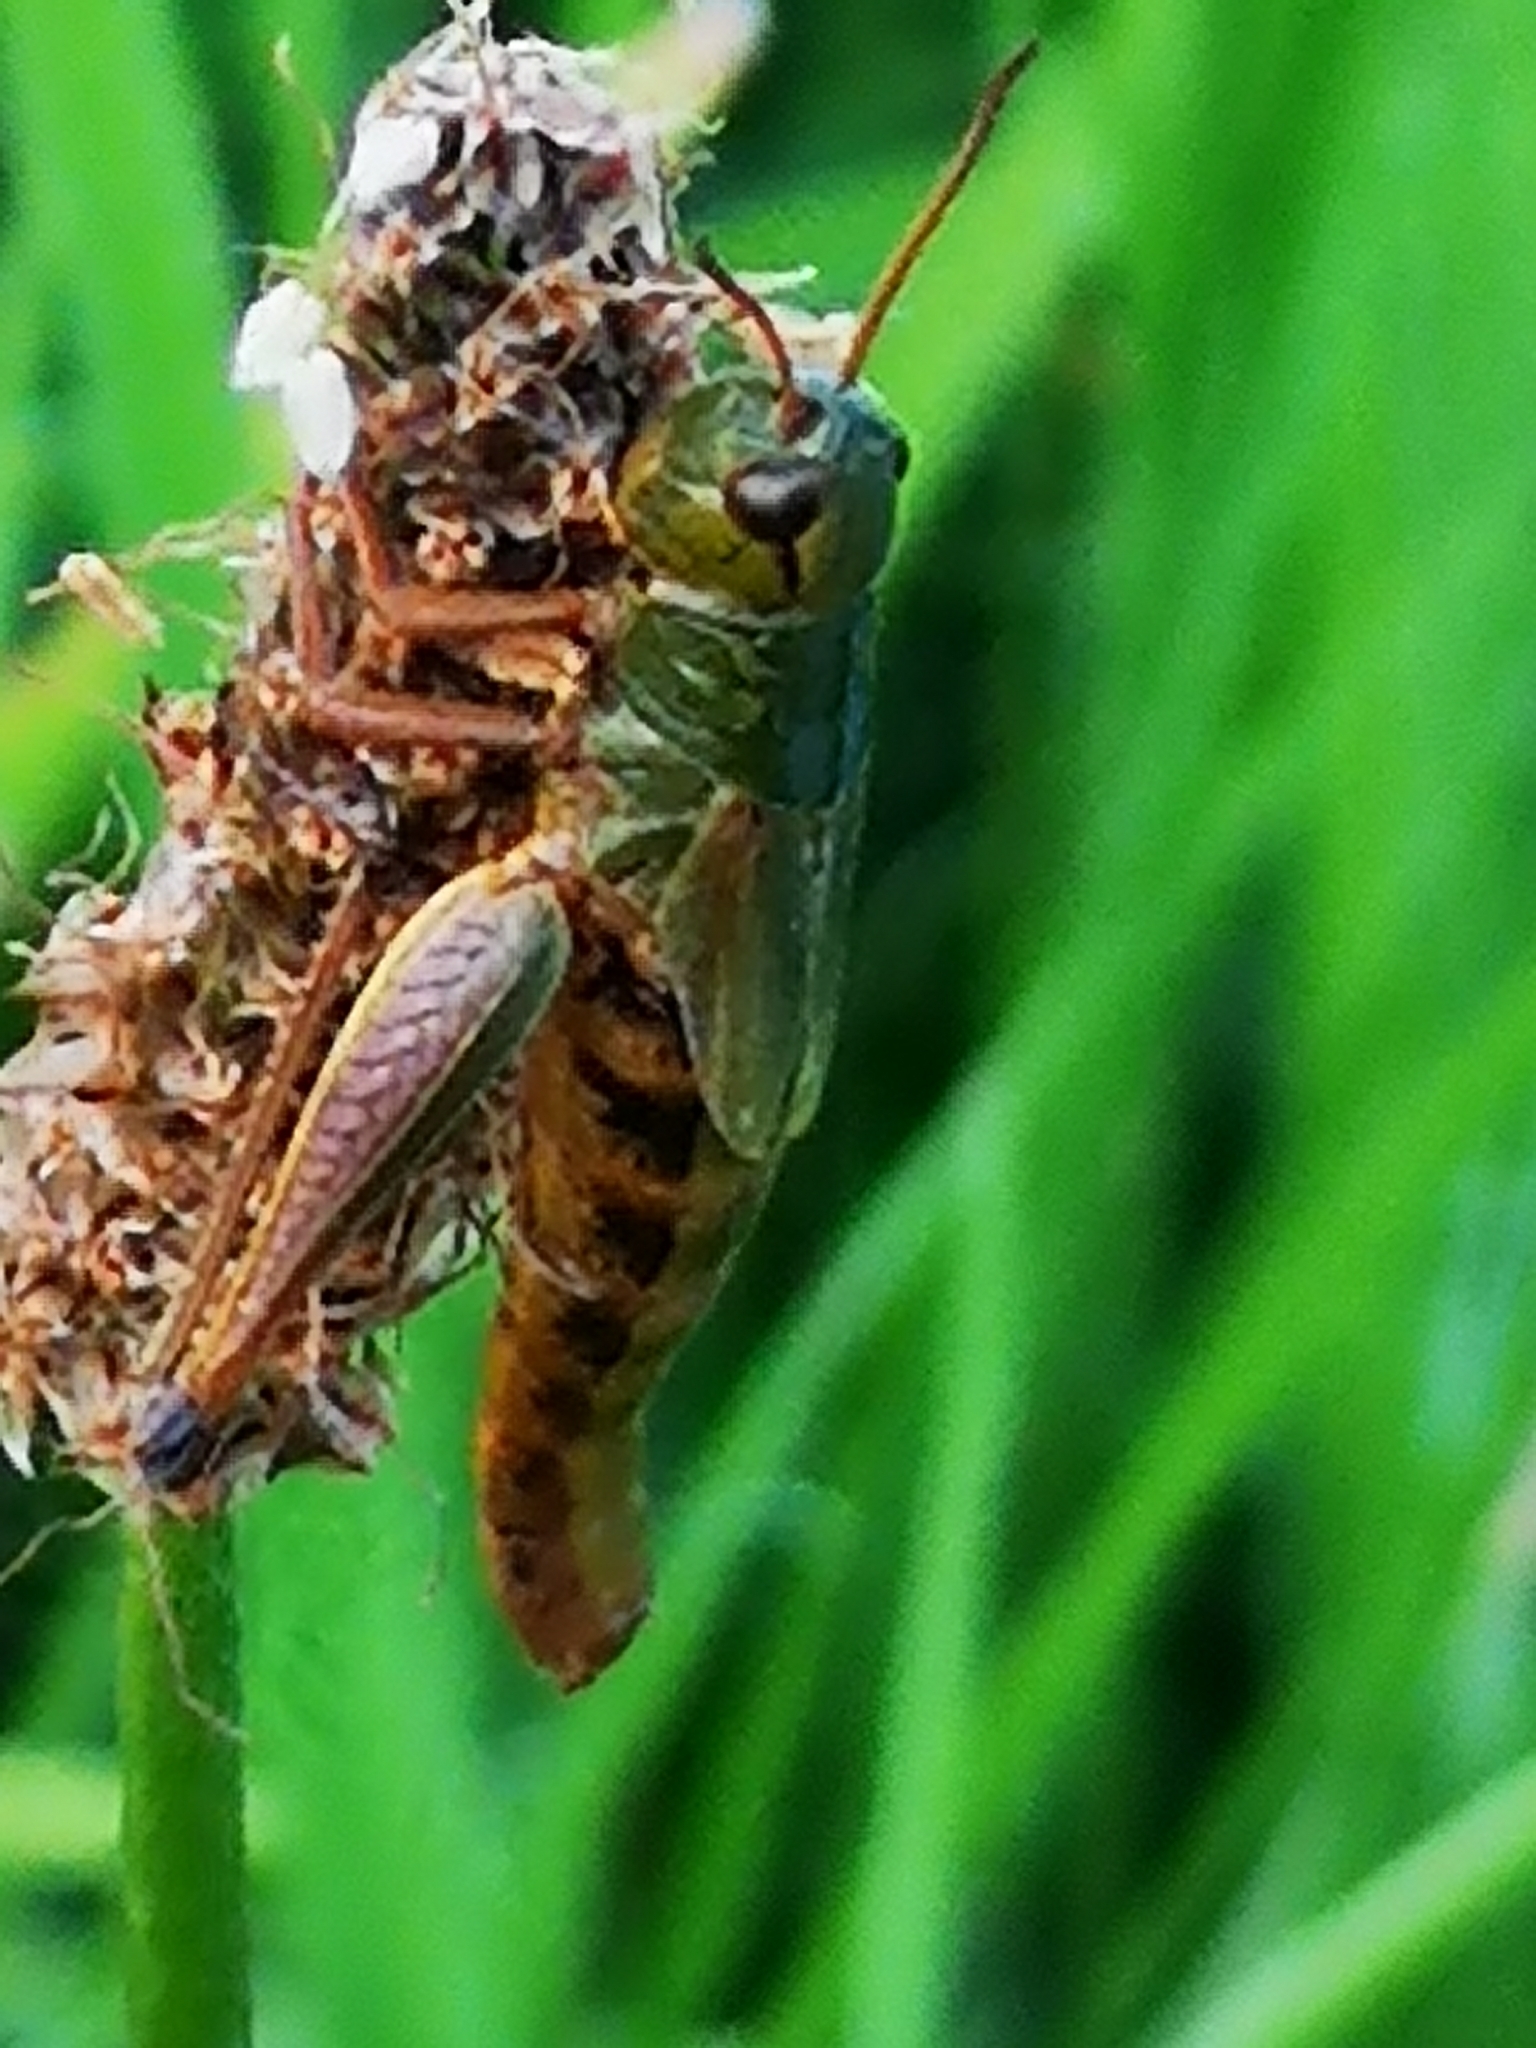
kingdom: Animalia
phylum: Arthropoda
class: Insecta
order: Orthoptera
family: Acrididae
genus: Pseudochorthippus
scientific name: Pseudochorthippus parallelus
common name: Meadow grasshopper
